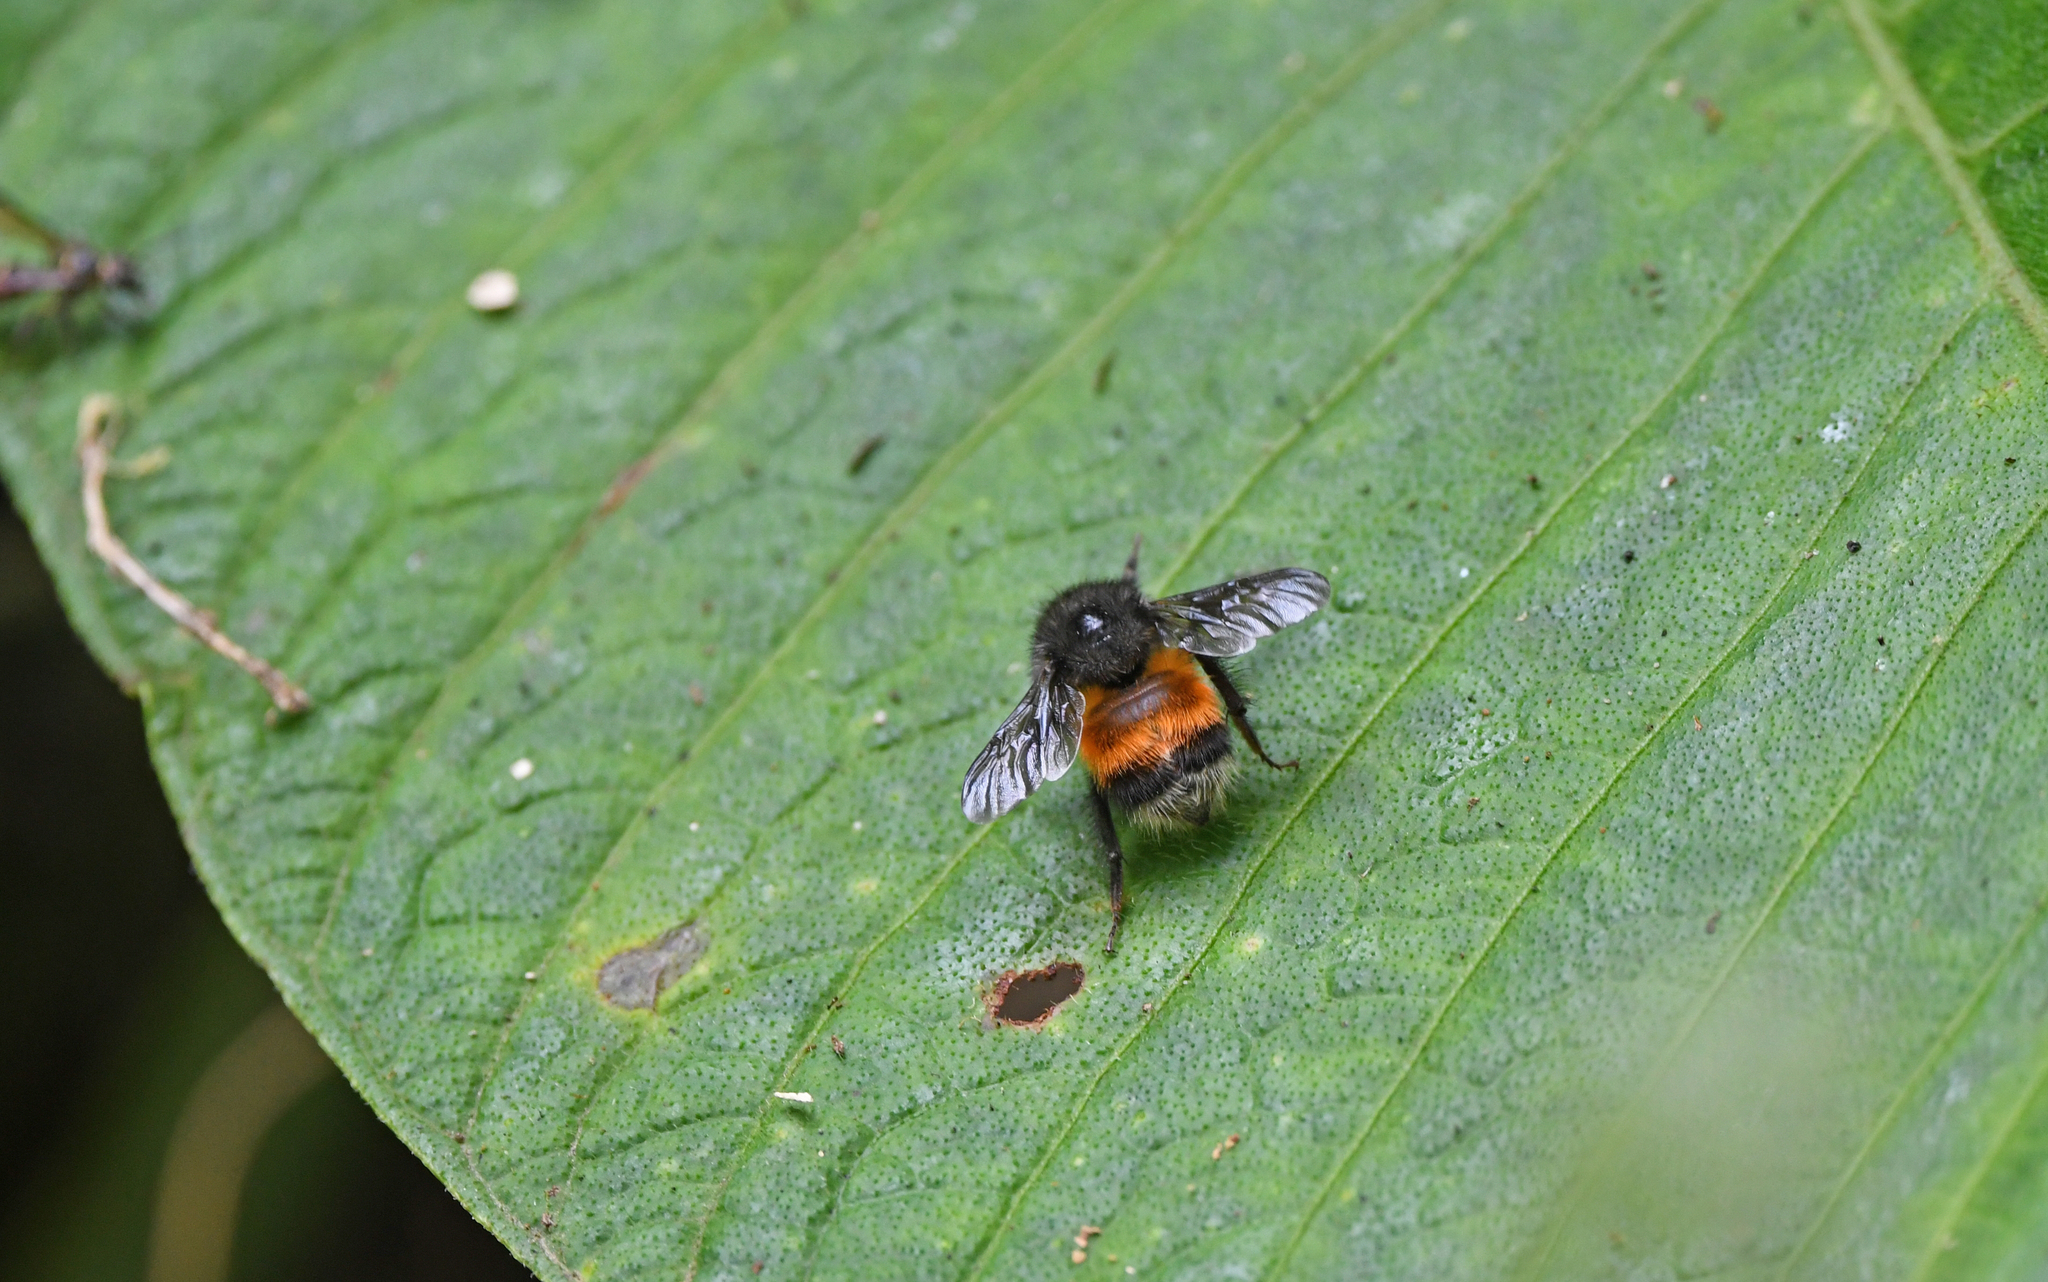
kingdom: Animalia
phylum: Arthropoda
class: Insecta
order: Hymenoptera
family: Apidae
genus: Bombus
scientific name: Bombus butteli
